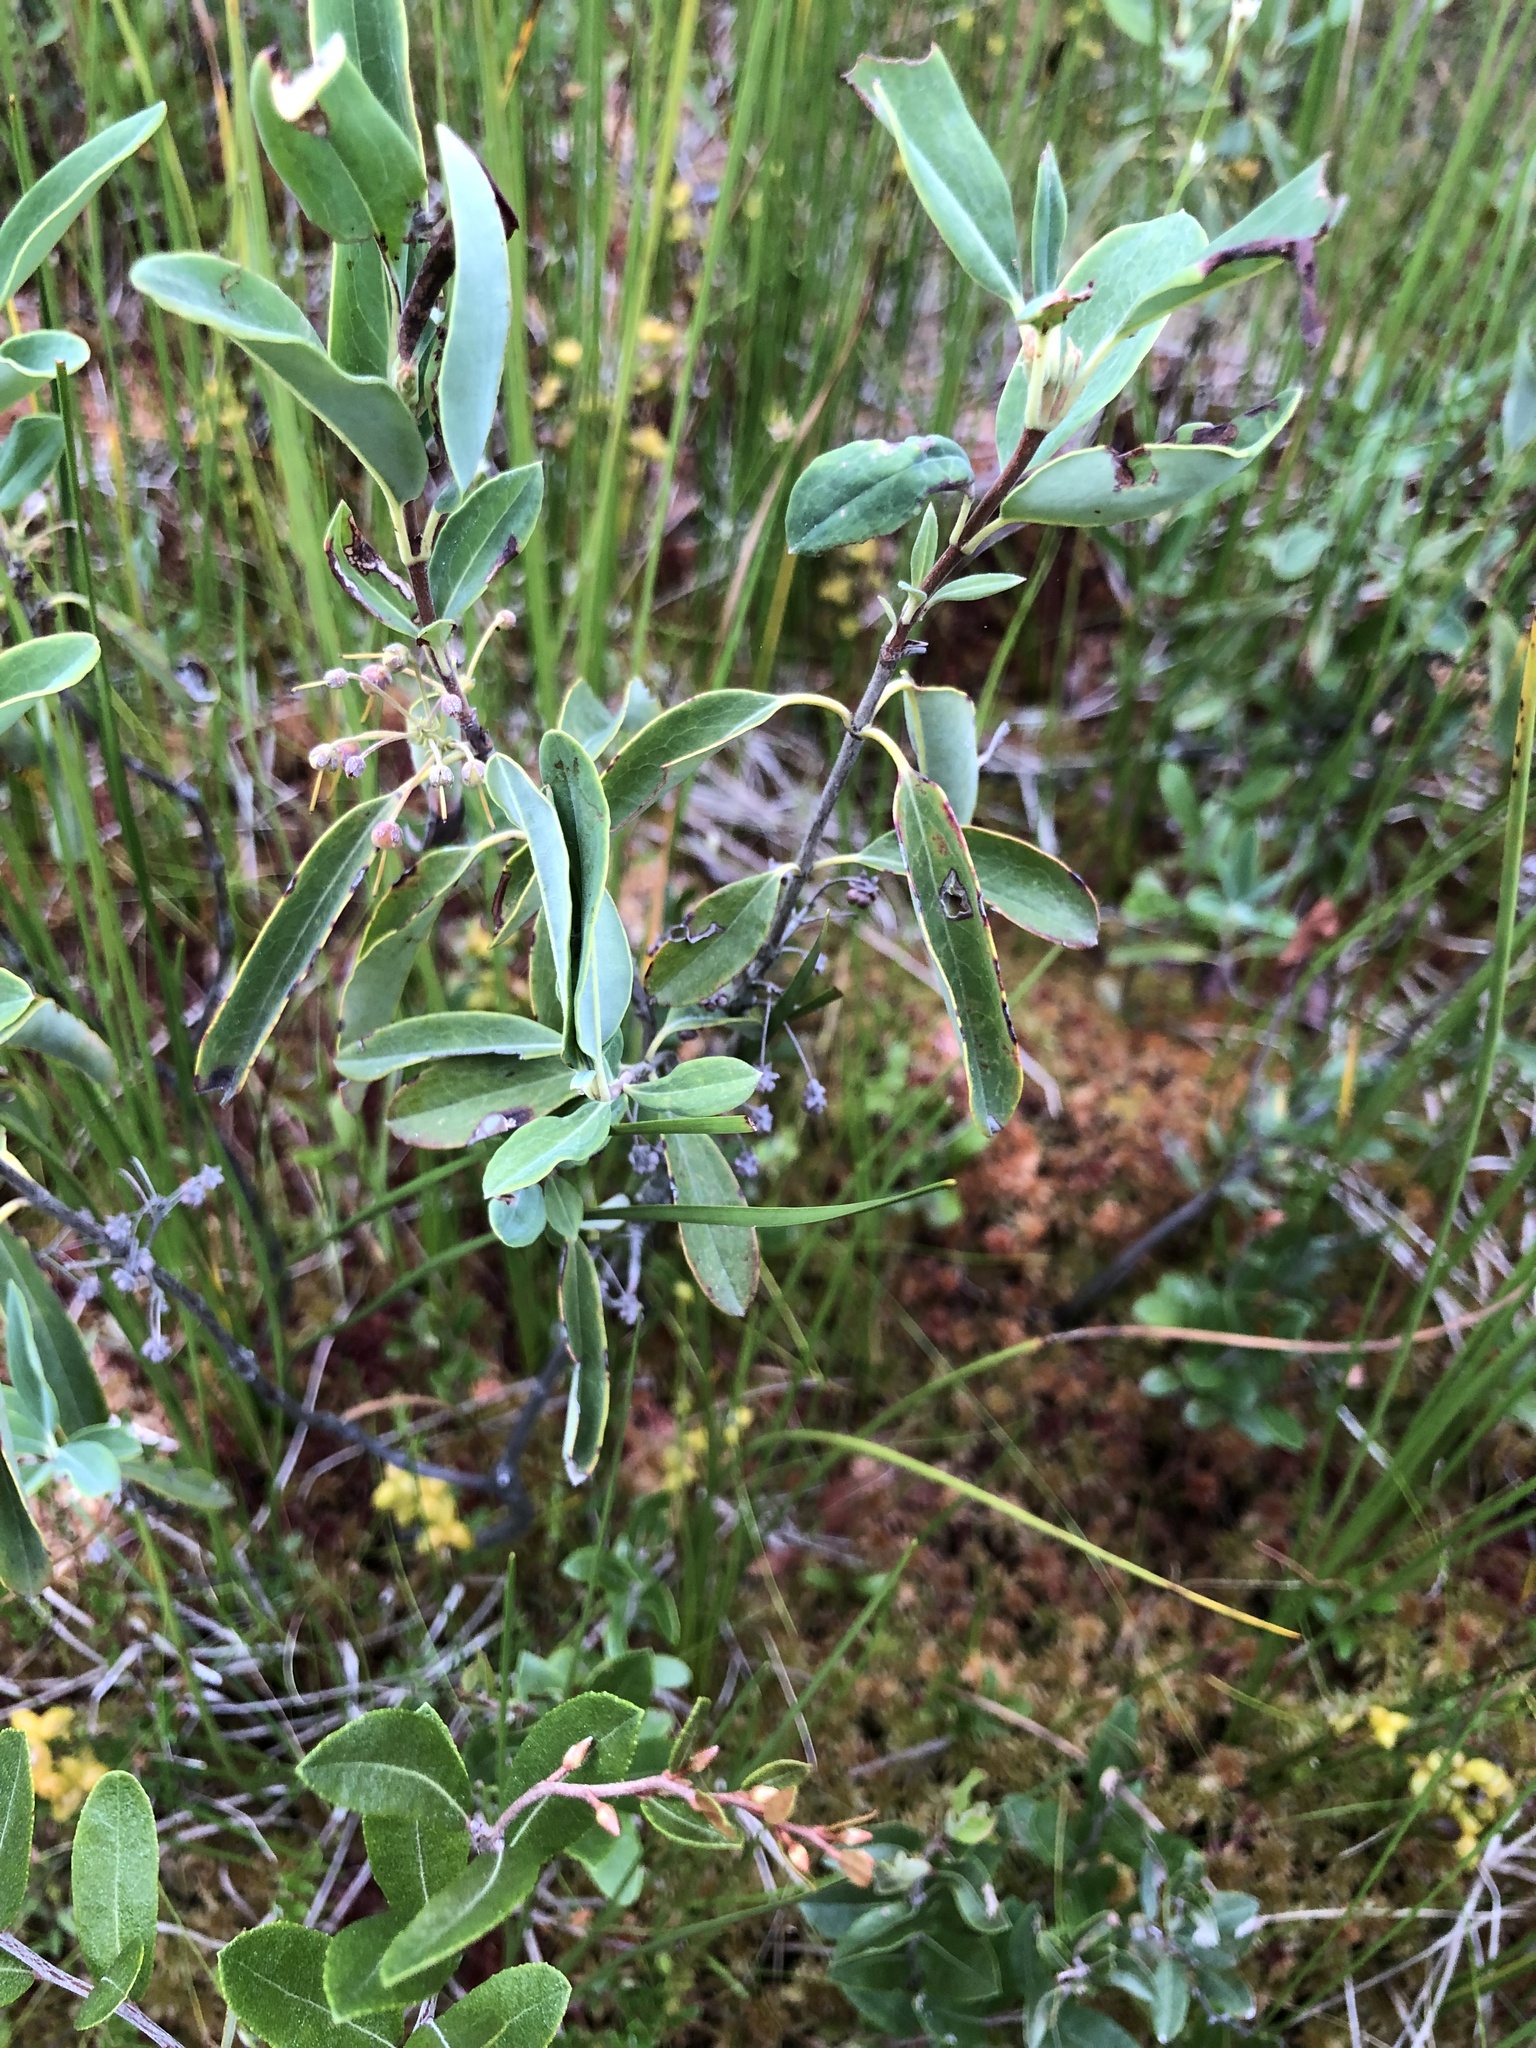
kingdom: Plantae
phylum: Tracheophyta
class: Magnoliopsida
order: Ericales
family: Ericaceae
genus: Kalmia
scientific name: Kalmia angustifolia
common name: Sheep-laurel
